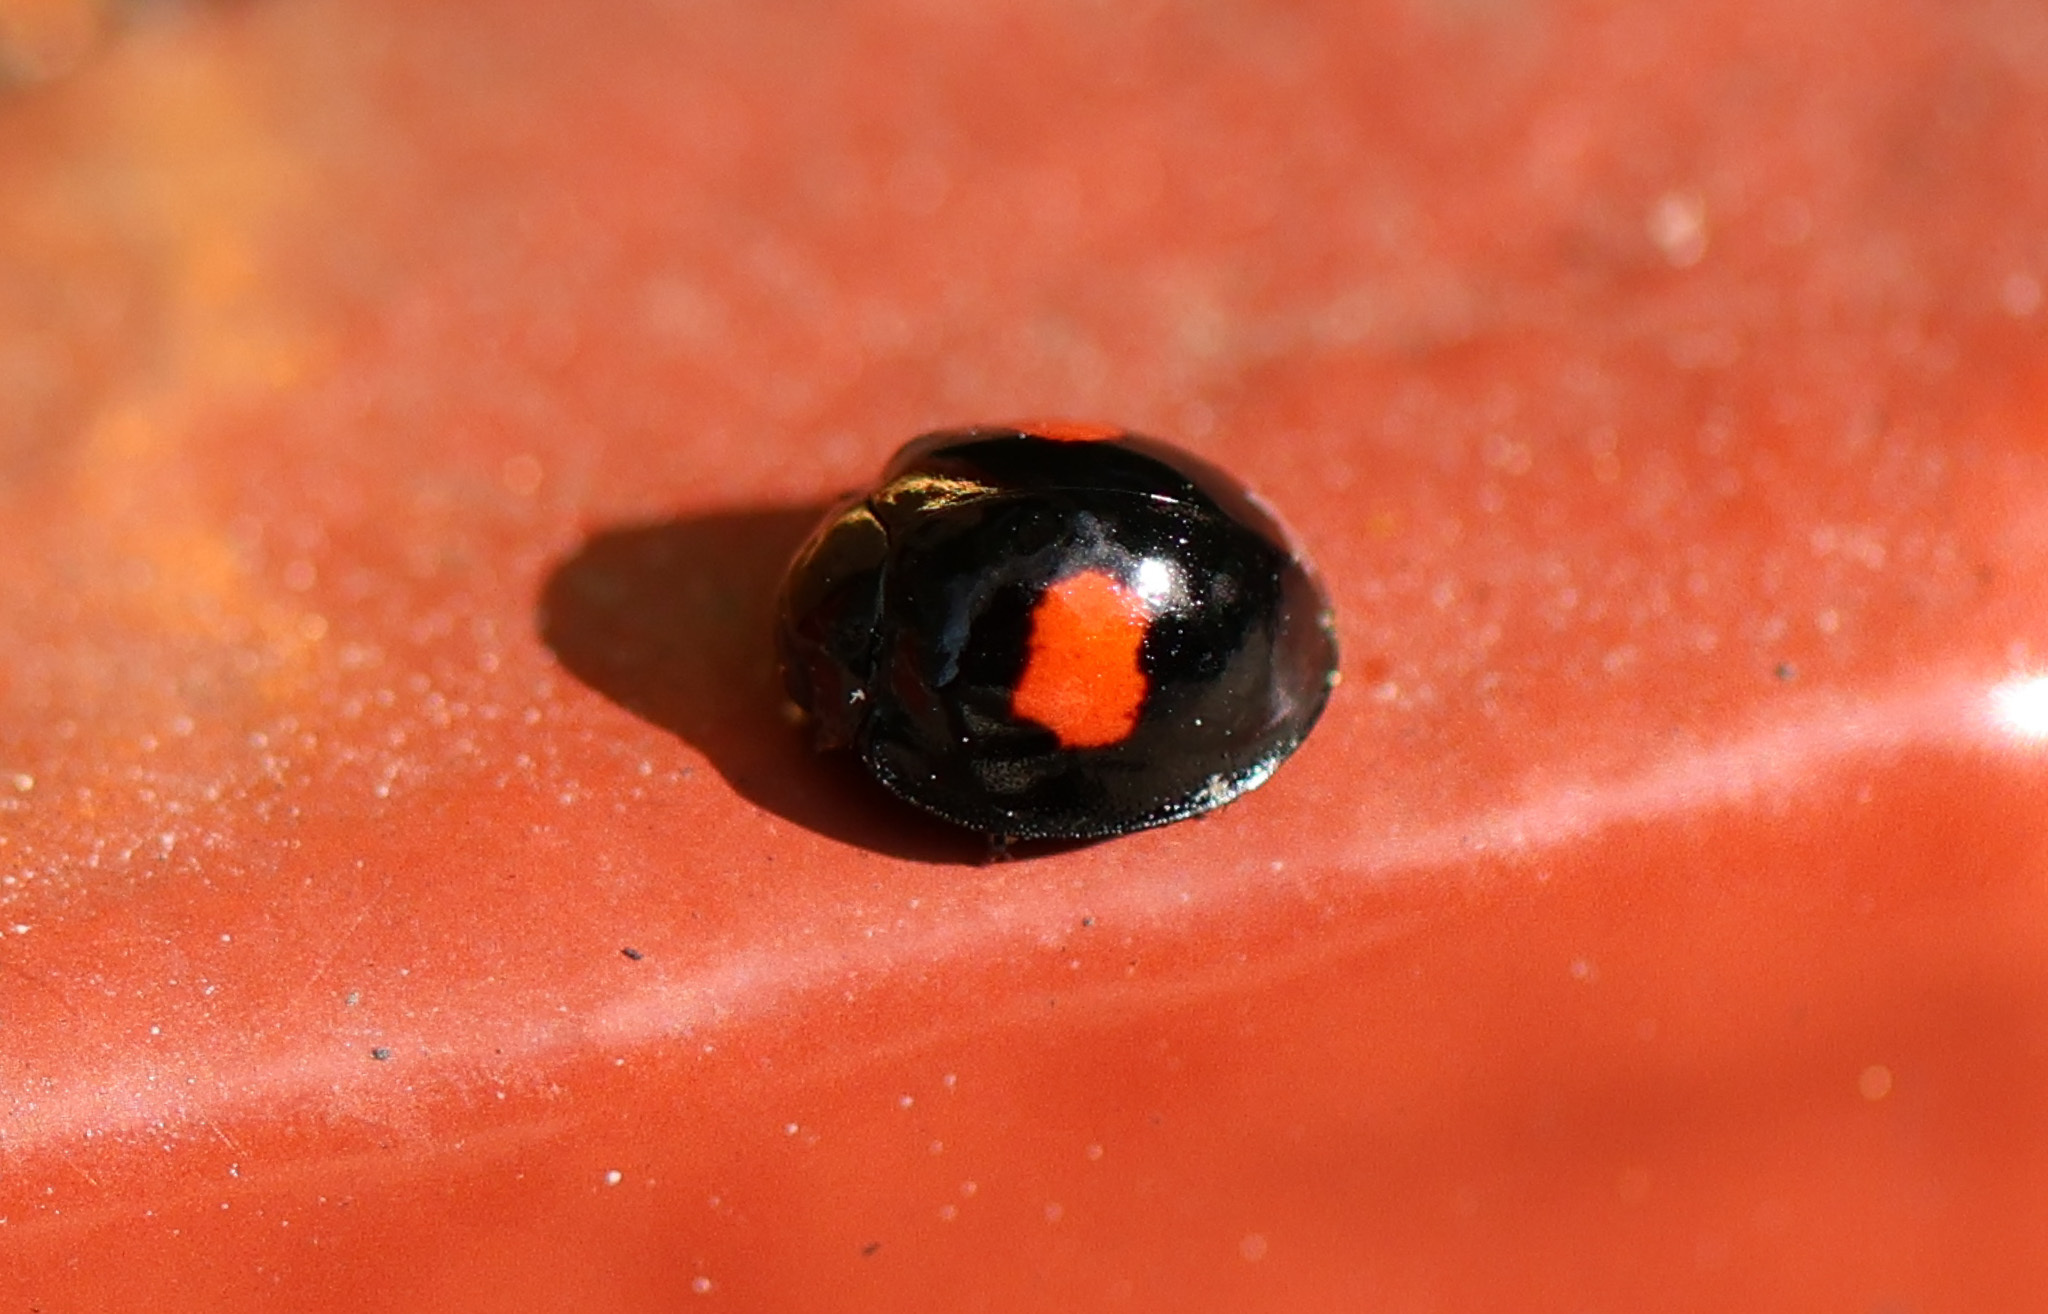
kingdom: Animalia
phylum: Arthropoda
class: Insecta
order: Coleoptera
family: Coccinellidae
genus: Chilocorus
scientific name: Chilocorus renipustulatus
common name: Kidney-spot ladybird
